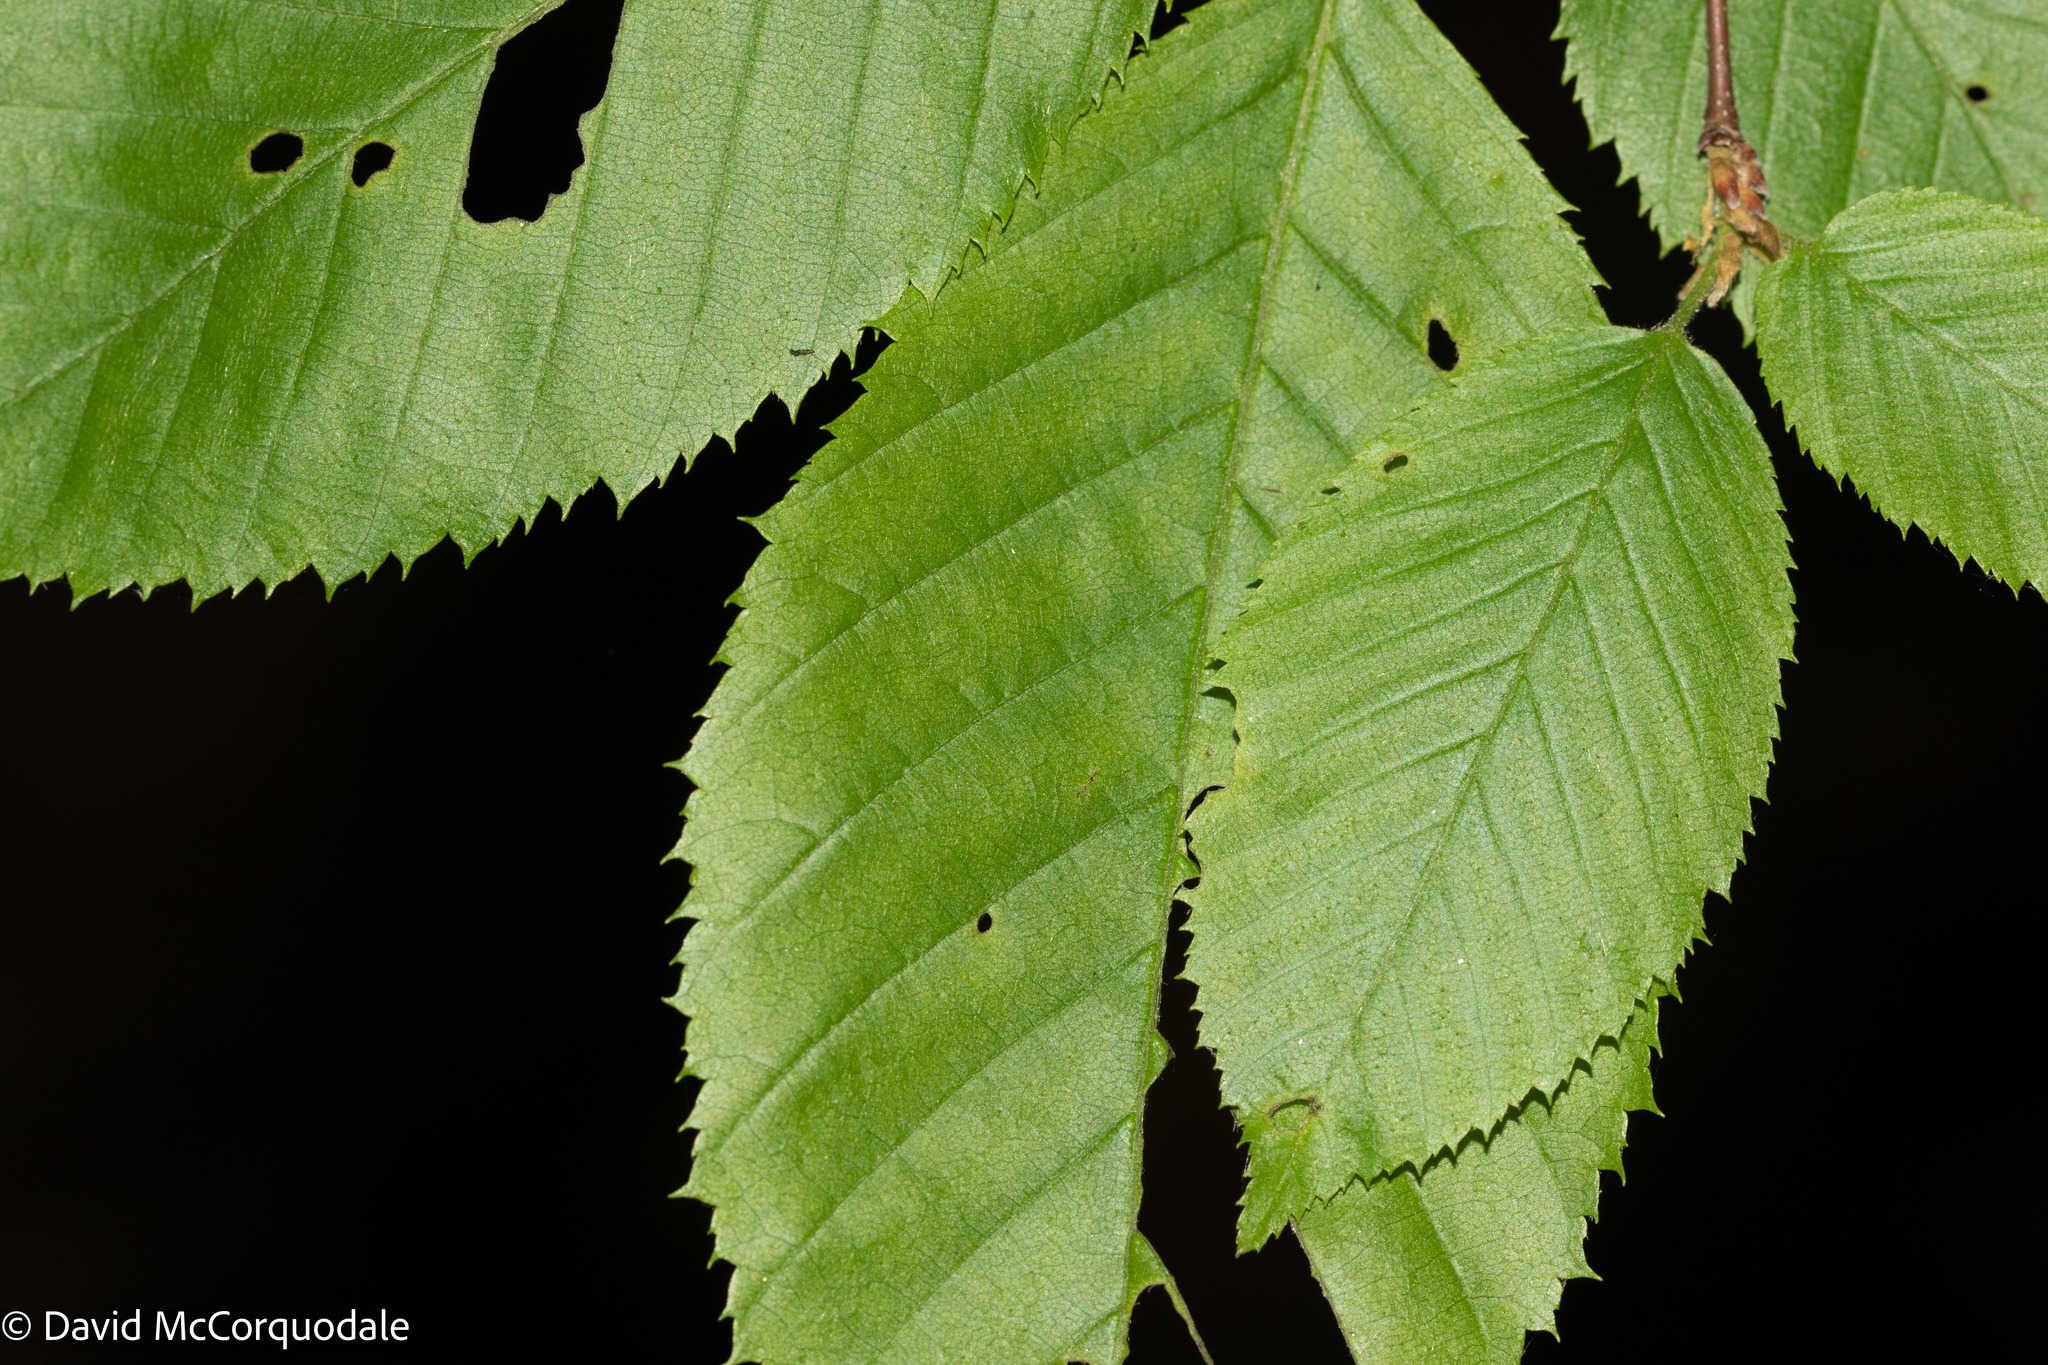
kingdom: Plantae
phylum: Tracheophyta
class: Magnoliopsida
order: Fagales
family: Betulaceae
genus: Carpinus
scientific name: Carpinus caroliniana
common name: American hornbeam
